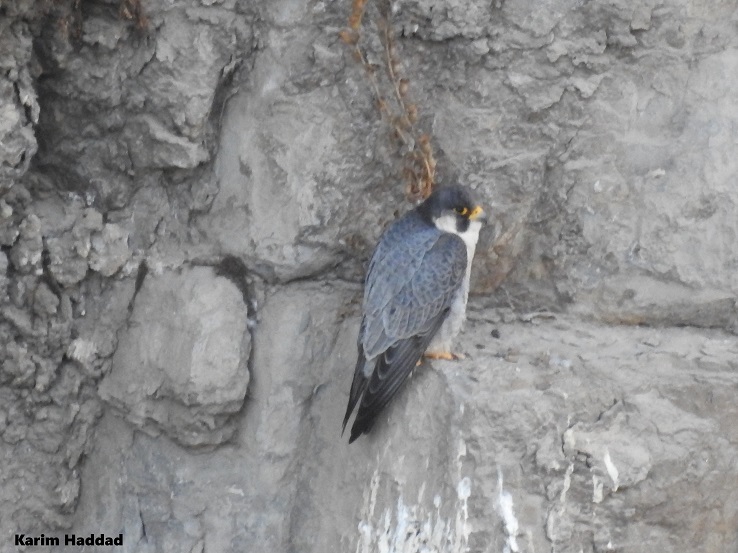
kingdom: Animalia
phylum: Chordata
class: Aves
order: Falconiformes
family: Falconidae
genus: Falco
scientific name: Falco peregrinus
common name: Peregrine falcon
